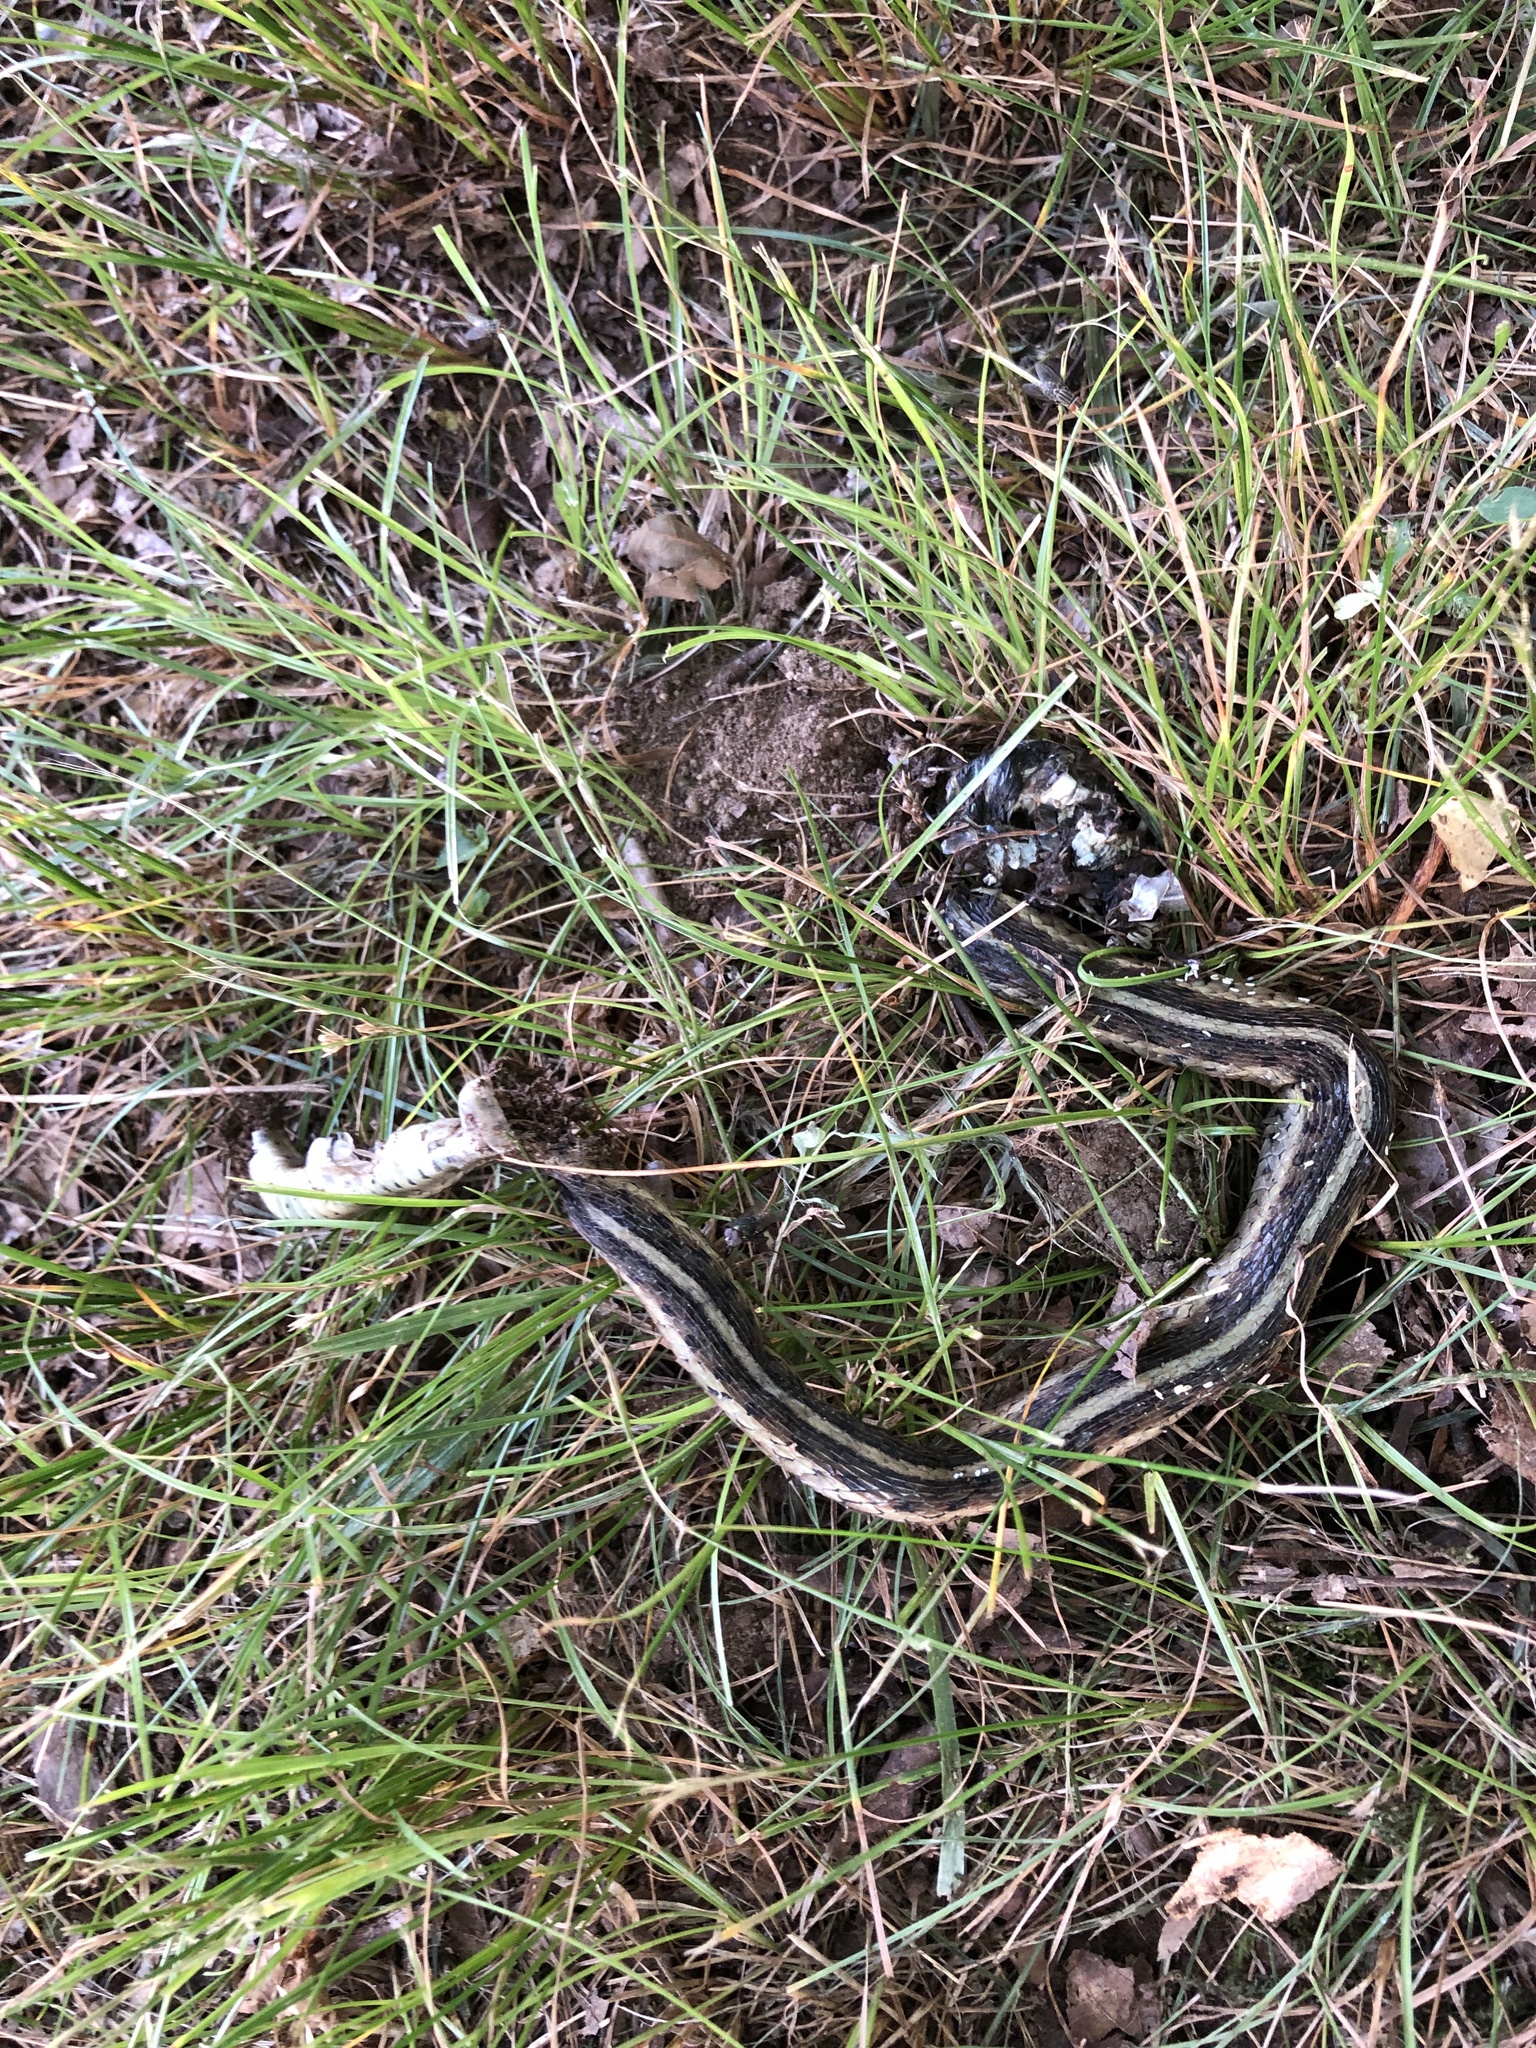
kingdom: Animalia
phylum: Chordata
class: Squamata
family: Colubridae
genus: Thamnophis
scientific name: Thamnophis sirtalis
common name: Common garter snake
